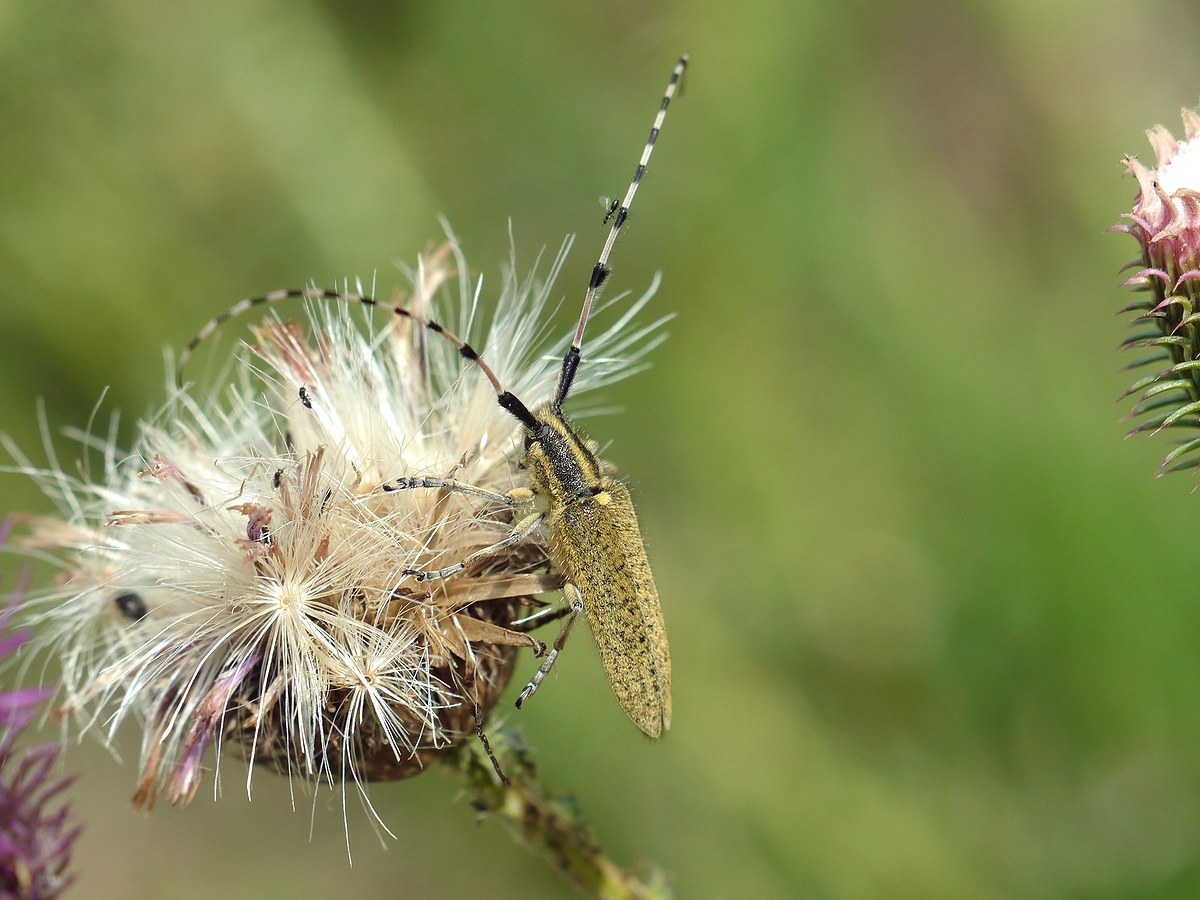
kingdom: Animalia
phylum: Arthropoda
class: Insecta
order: Coleoptera
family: Cerambycidae
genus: Agapanthia
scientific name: Agapanthia dahlii
